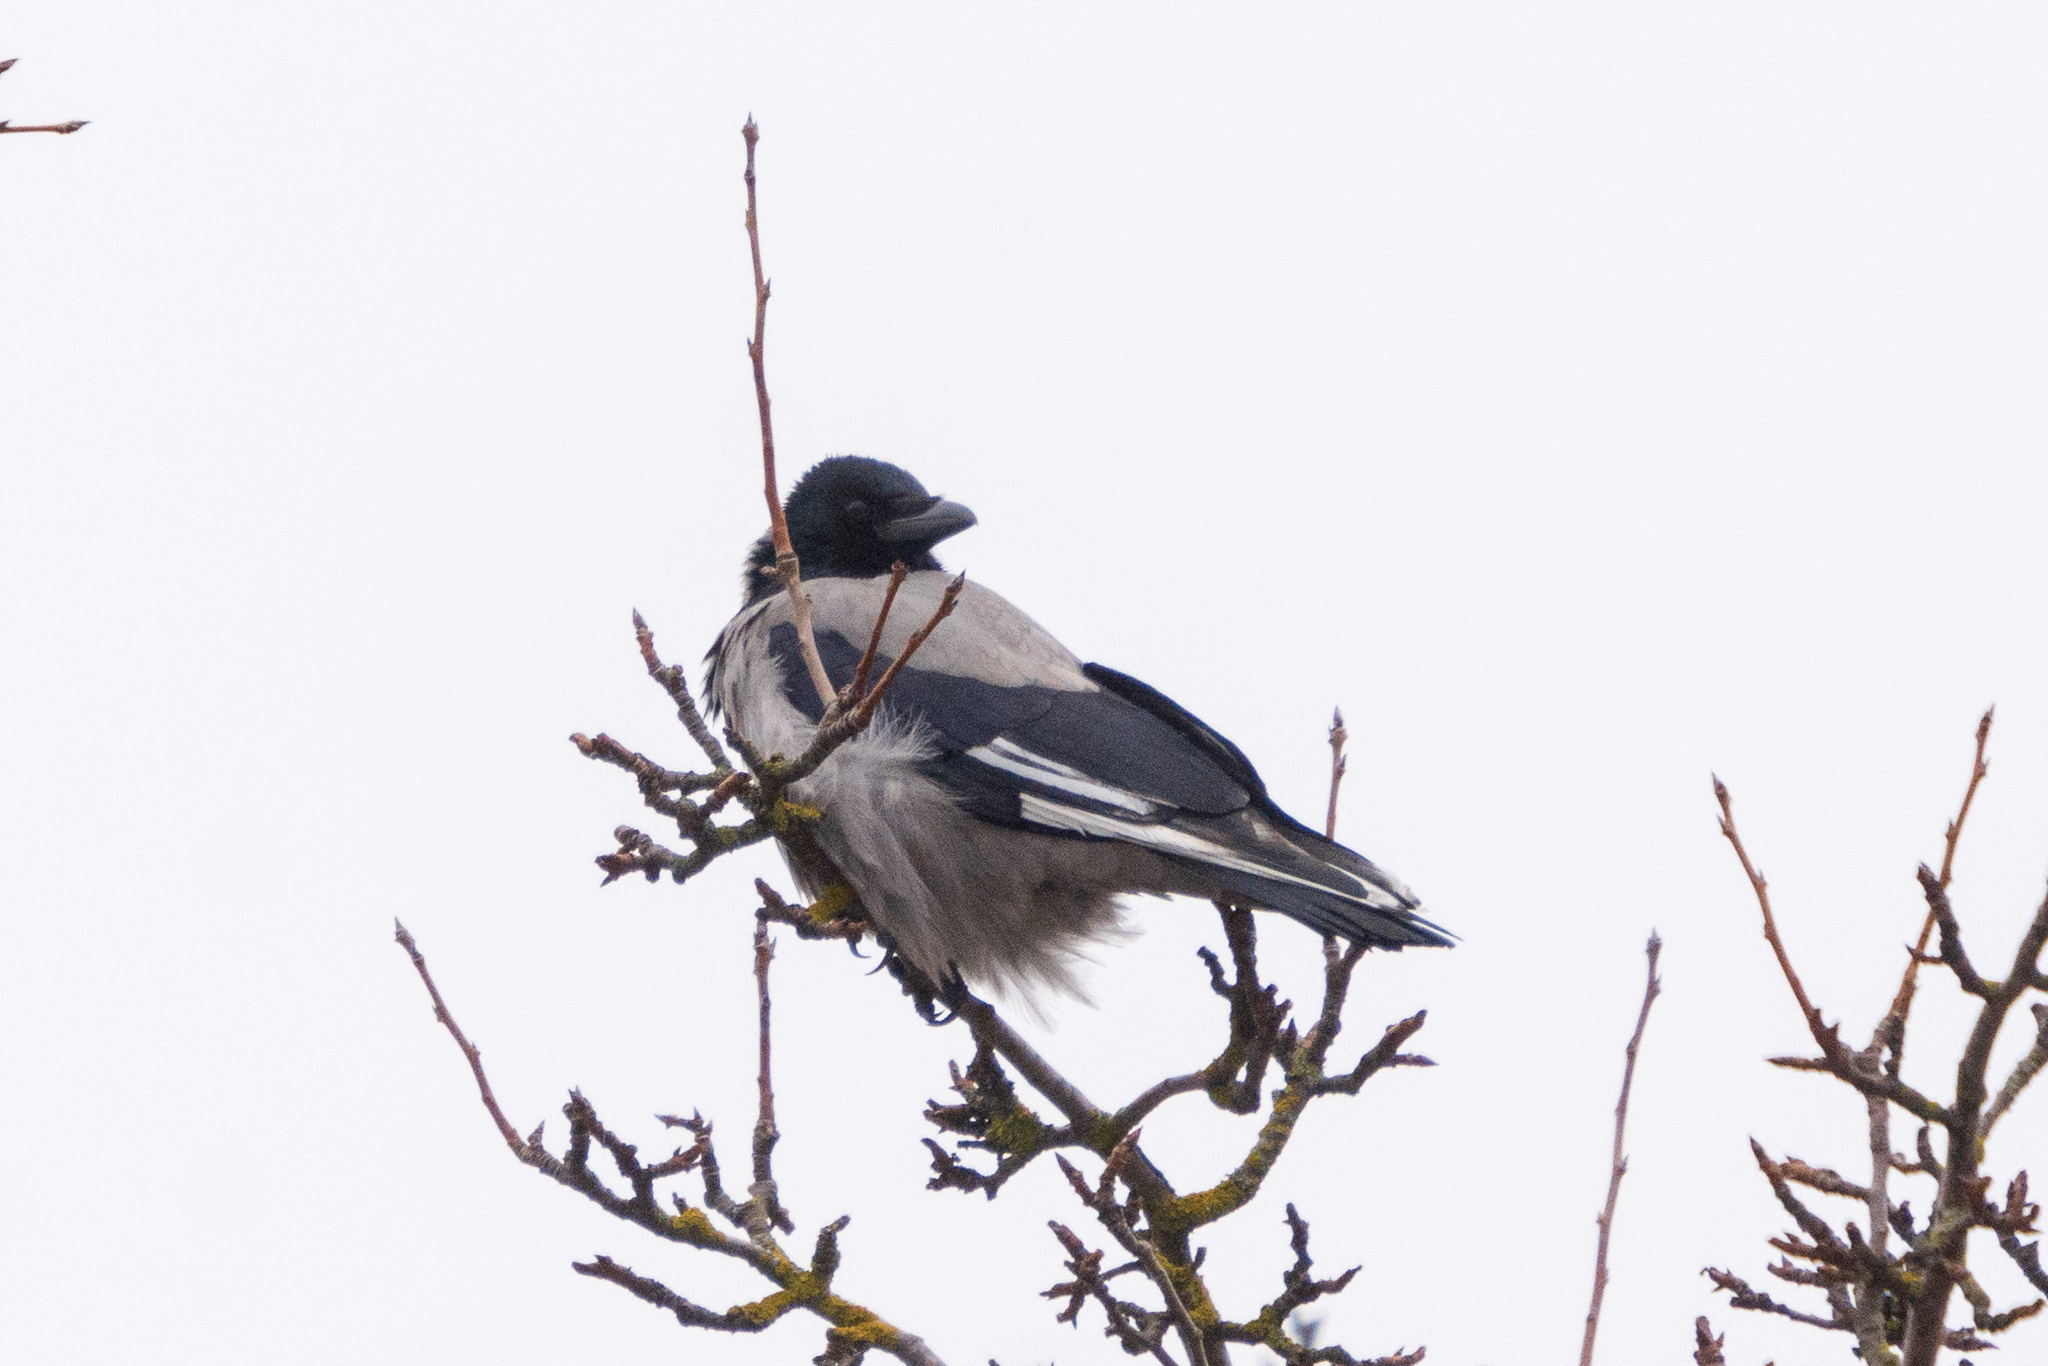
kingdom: Animalia
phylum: Chordata
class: Aves
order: Passeriformes
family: Corvidae
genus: Corvus
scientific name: Corvus cornix
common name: Hooded crow
